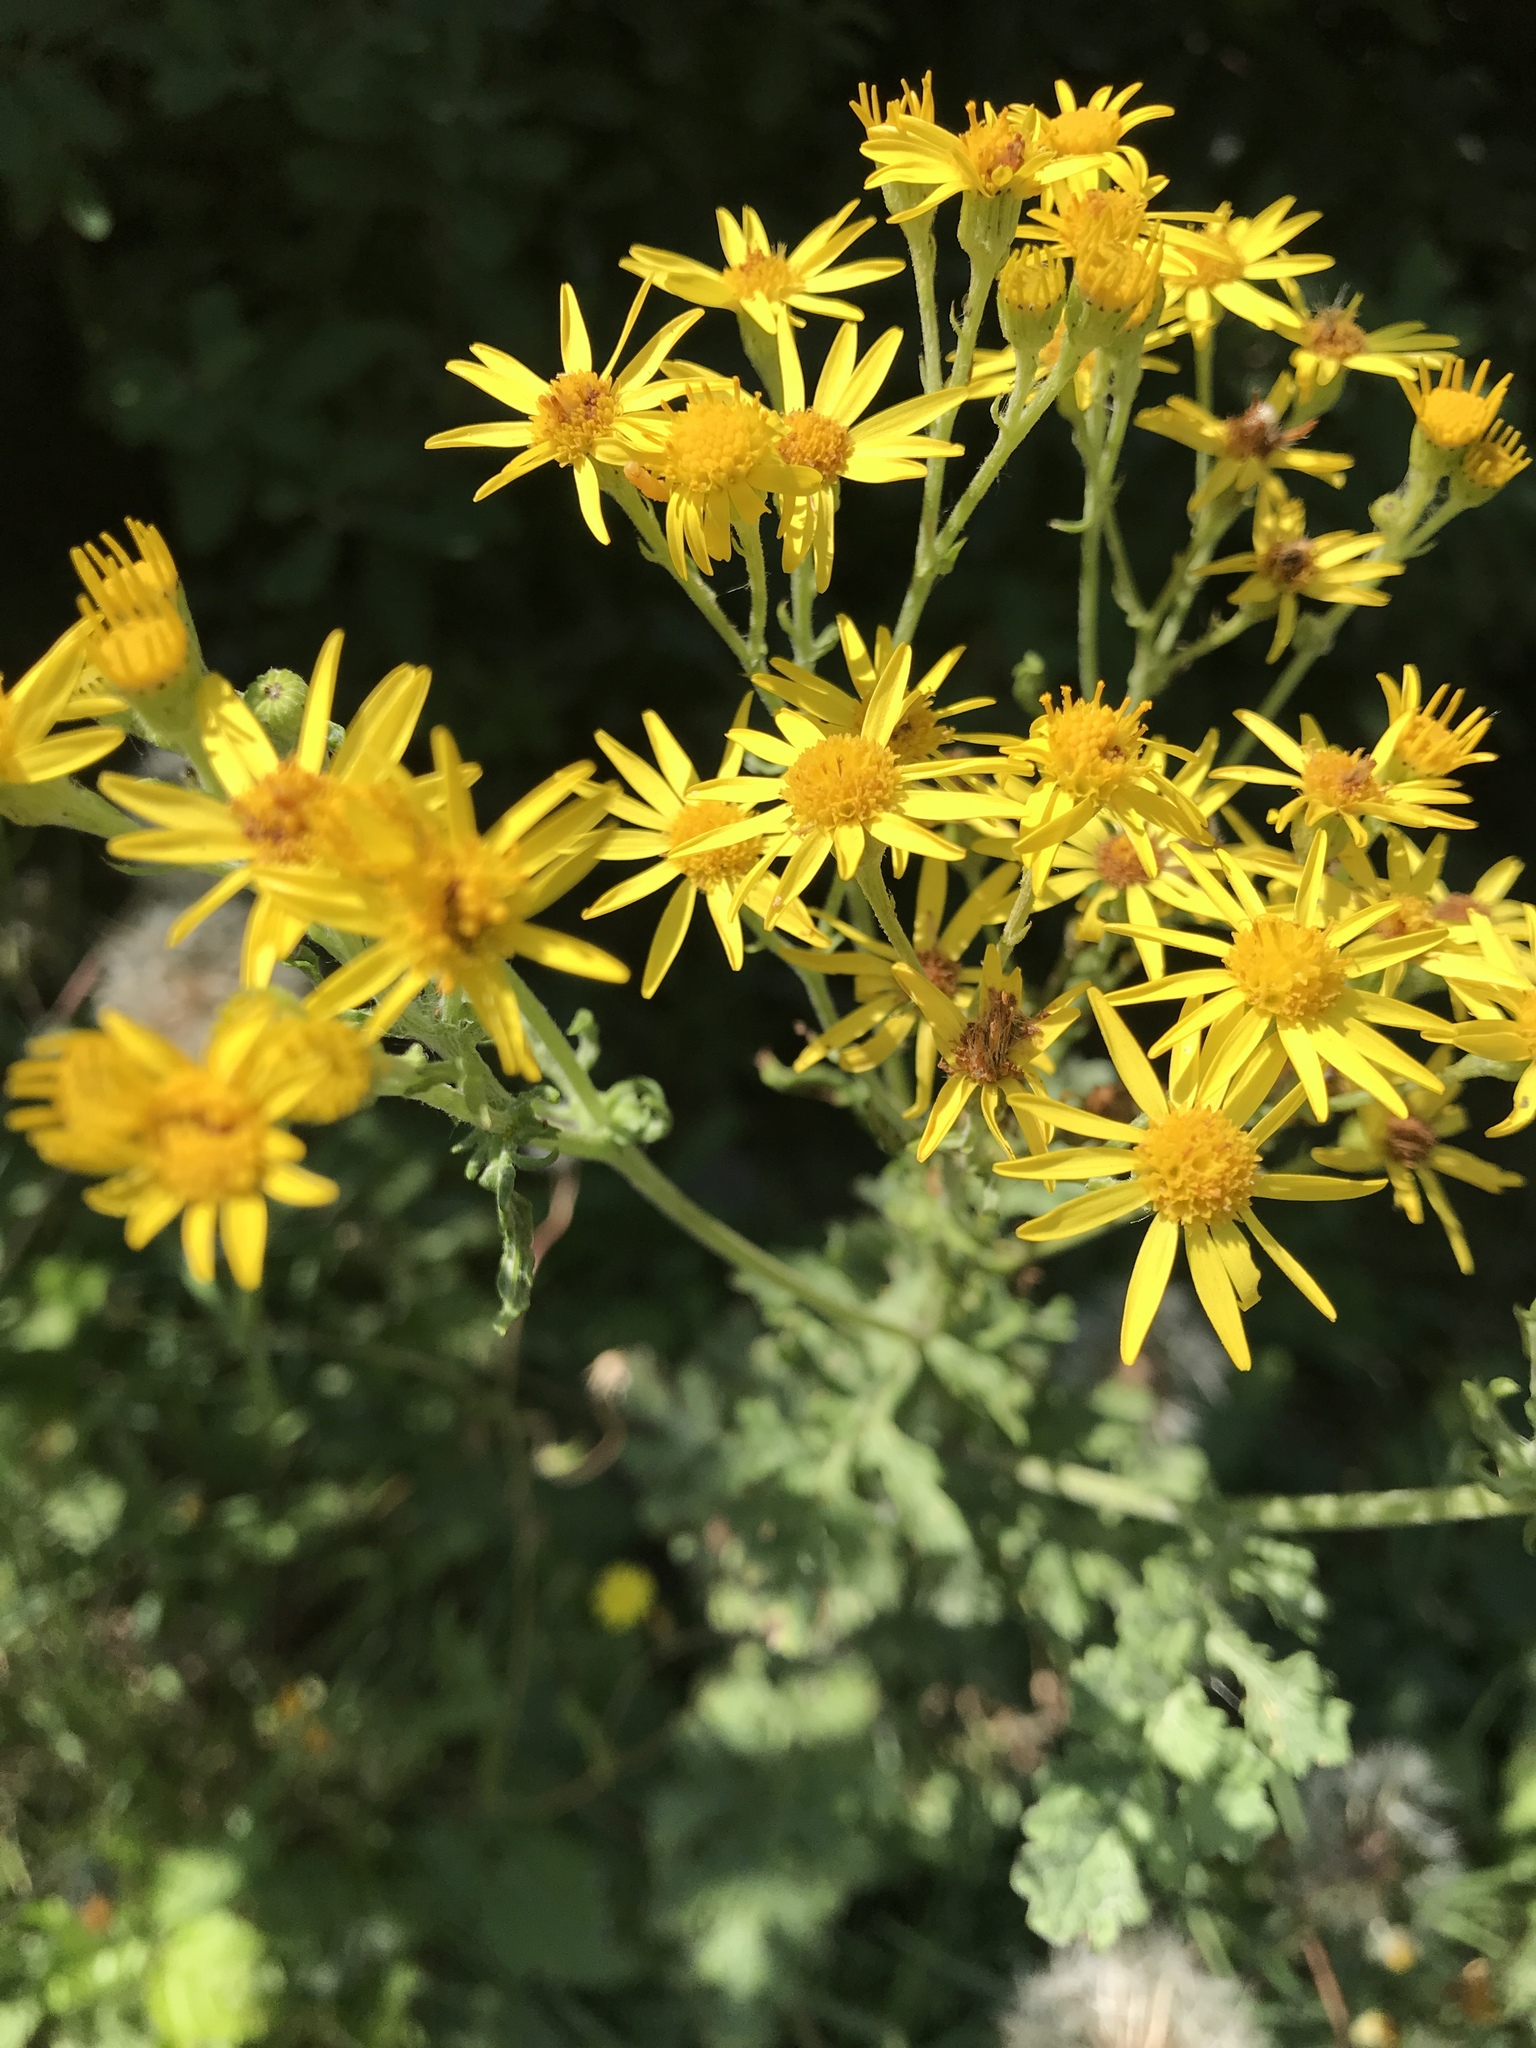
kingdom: Plantae
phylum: Tracheophyta
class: Magnoliopsida
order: Asterales
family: Asteraceae
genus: Jacobaea
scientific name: Jacobaea vulgaris
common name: Stinking willie
